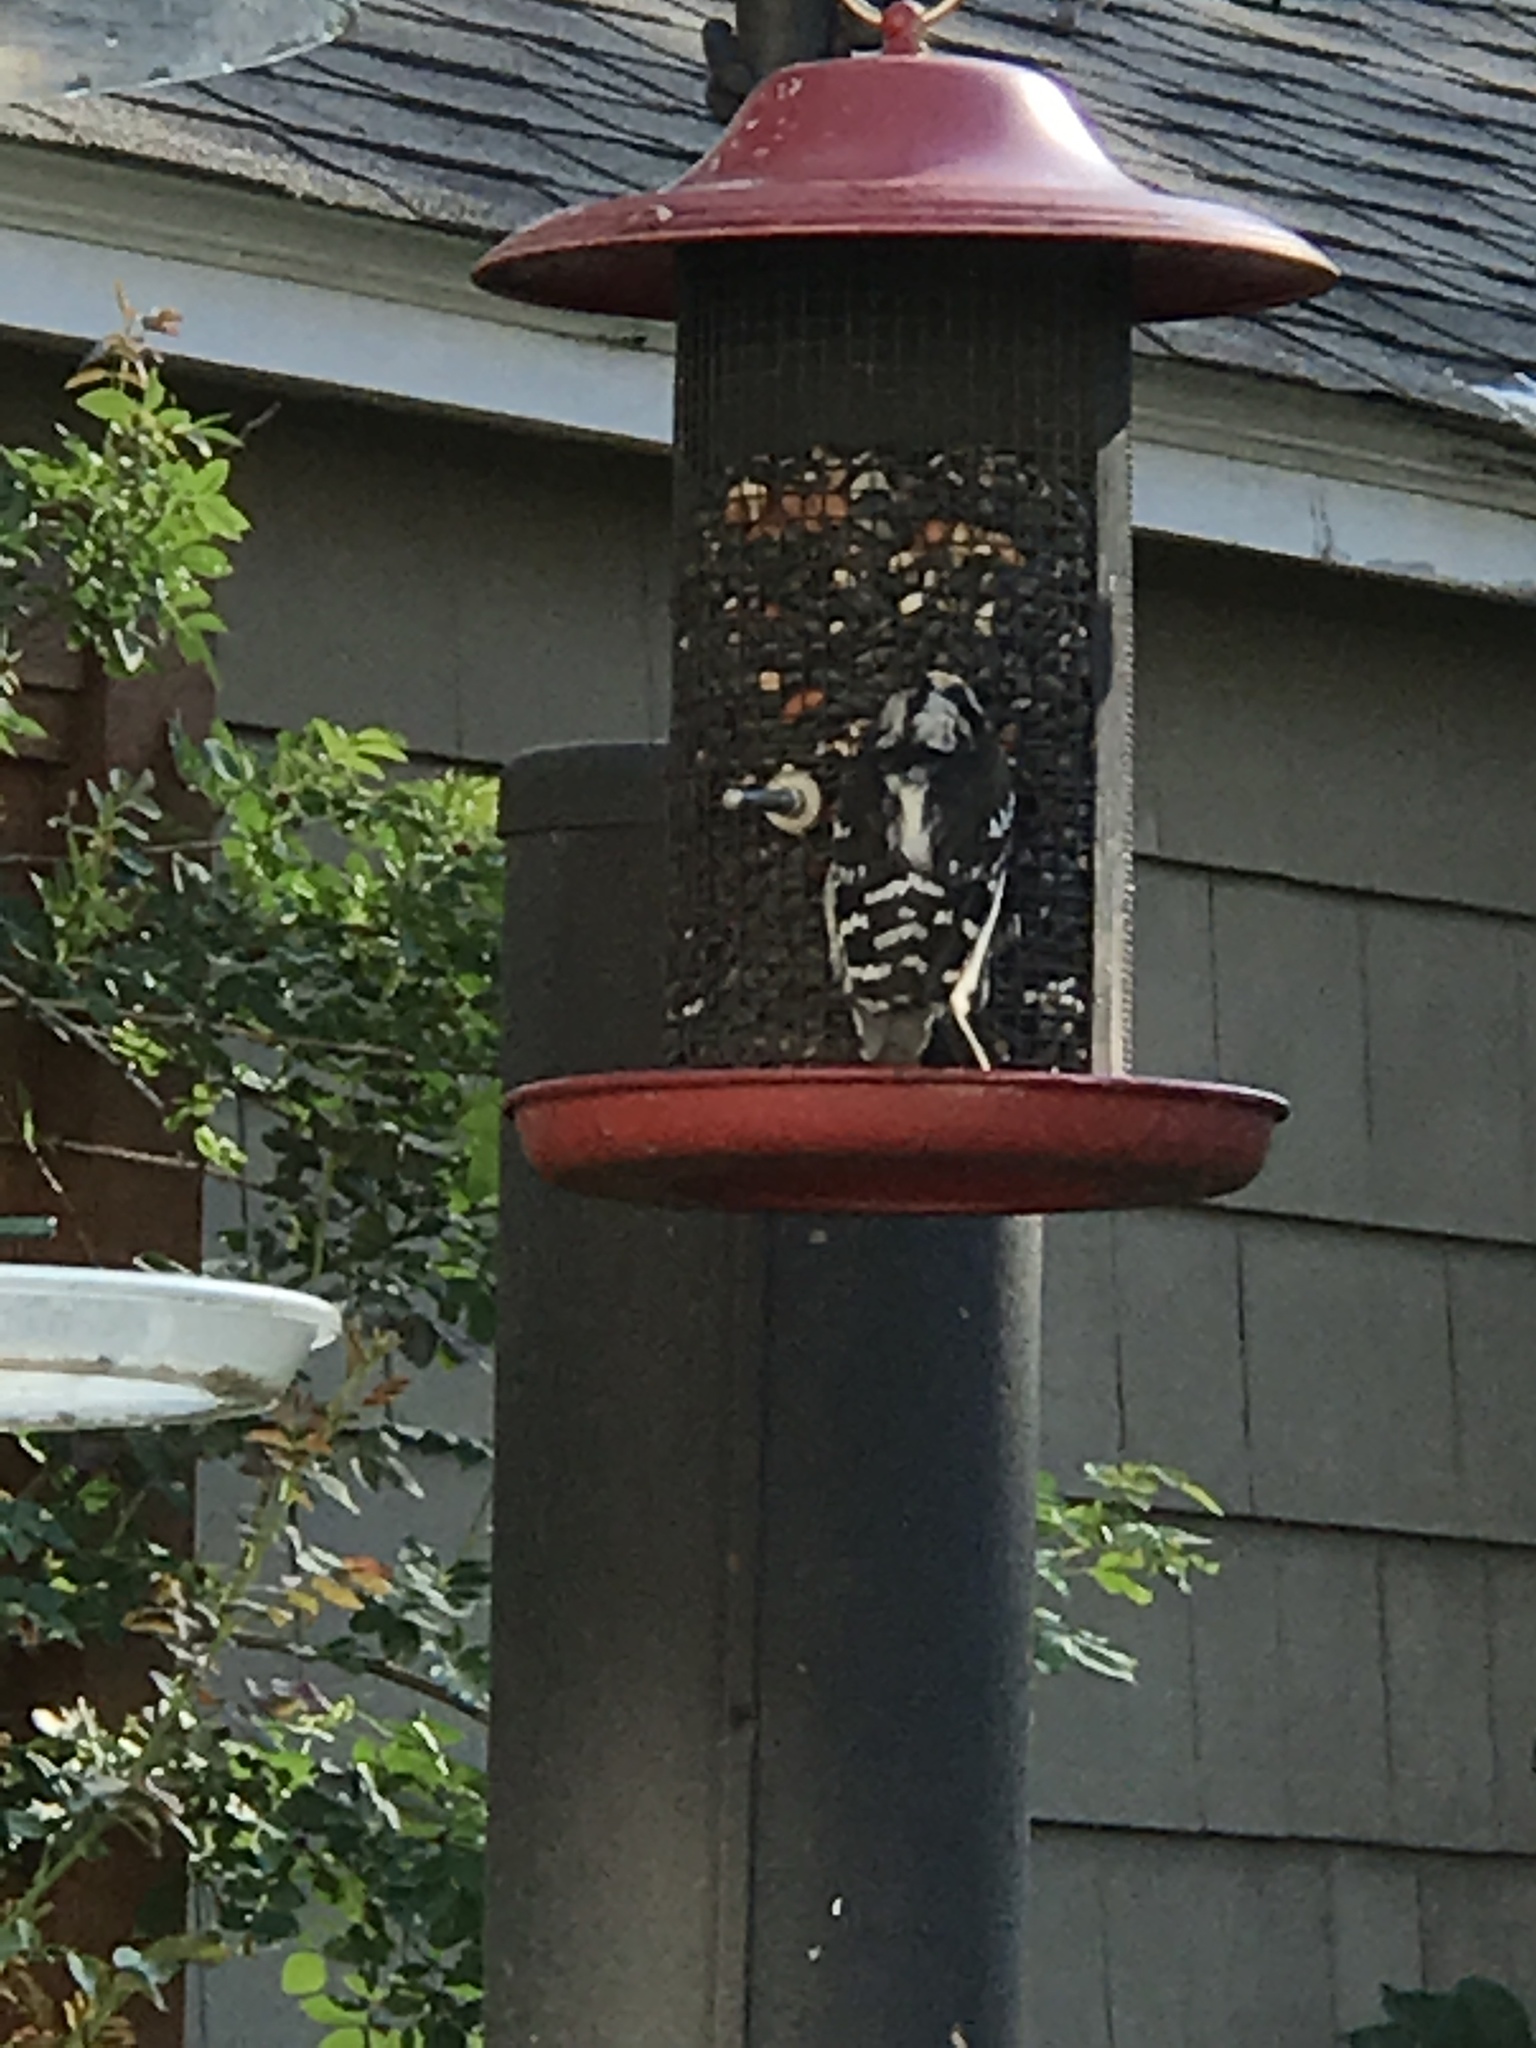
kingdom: Animalia
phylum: Chordata
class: Aves
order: Piciformes
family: Picidae
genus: Dryobates
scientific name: Dryobates pubescens
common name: Downy woodpecker
